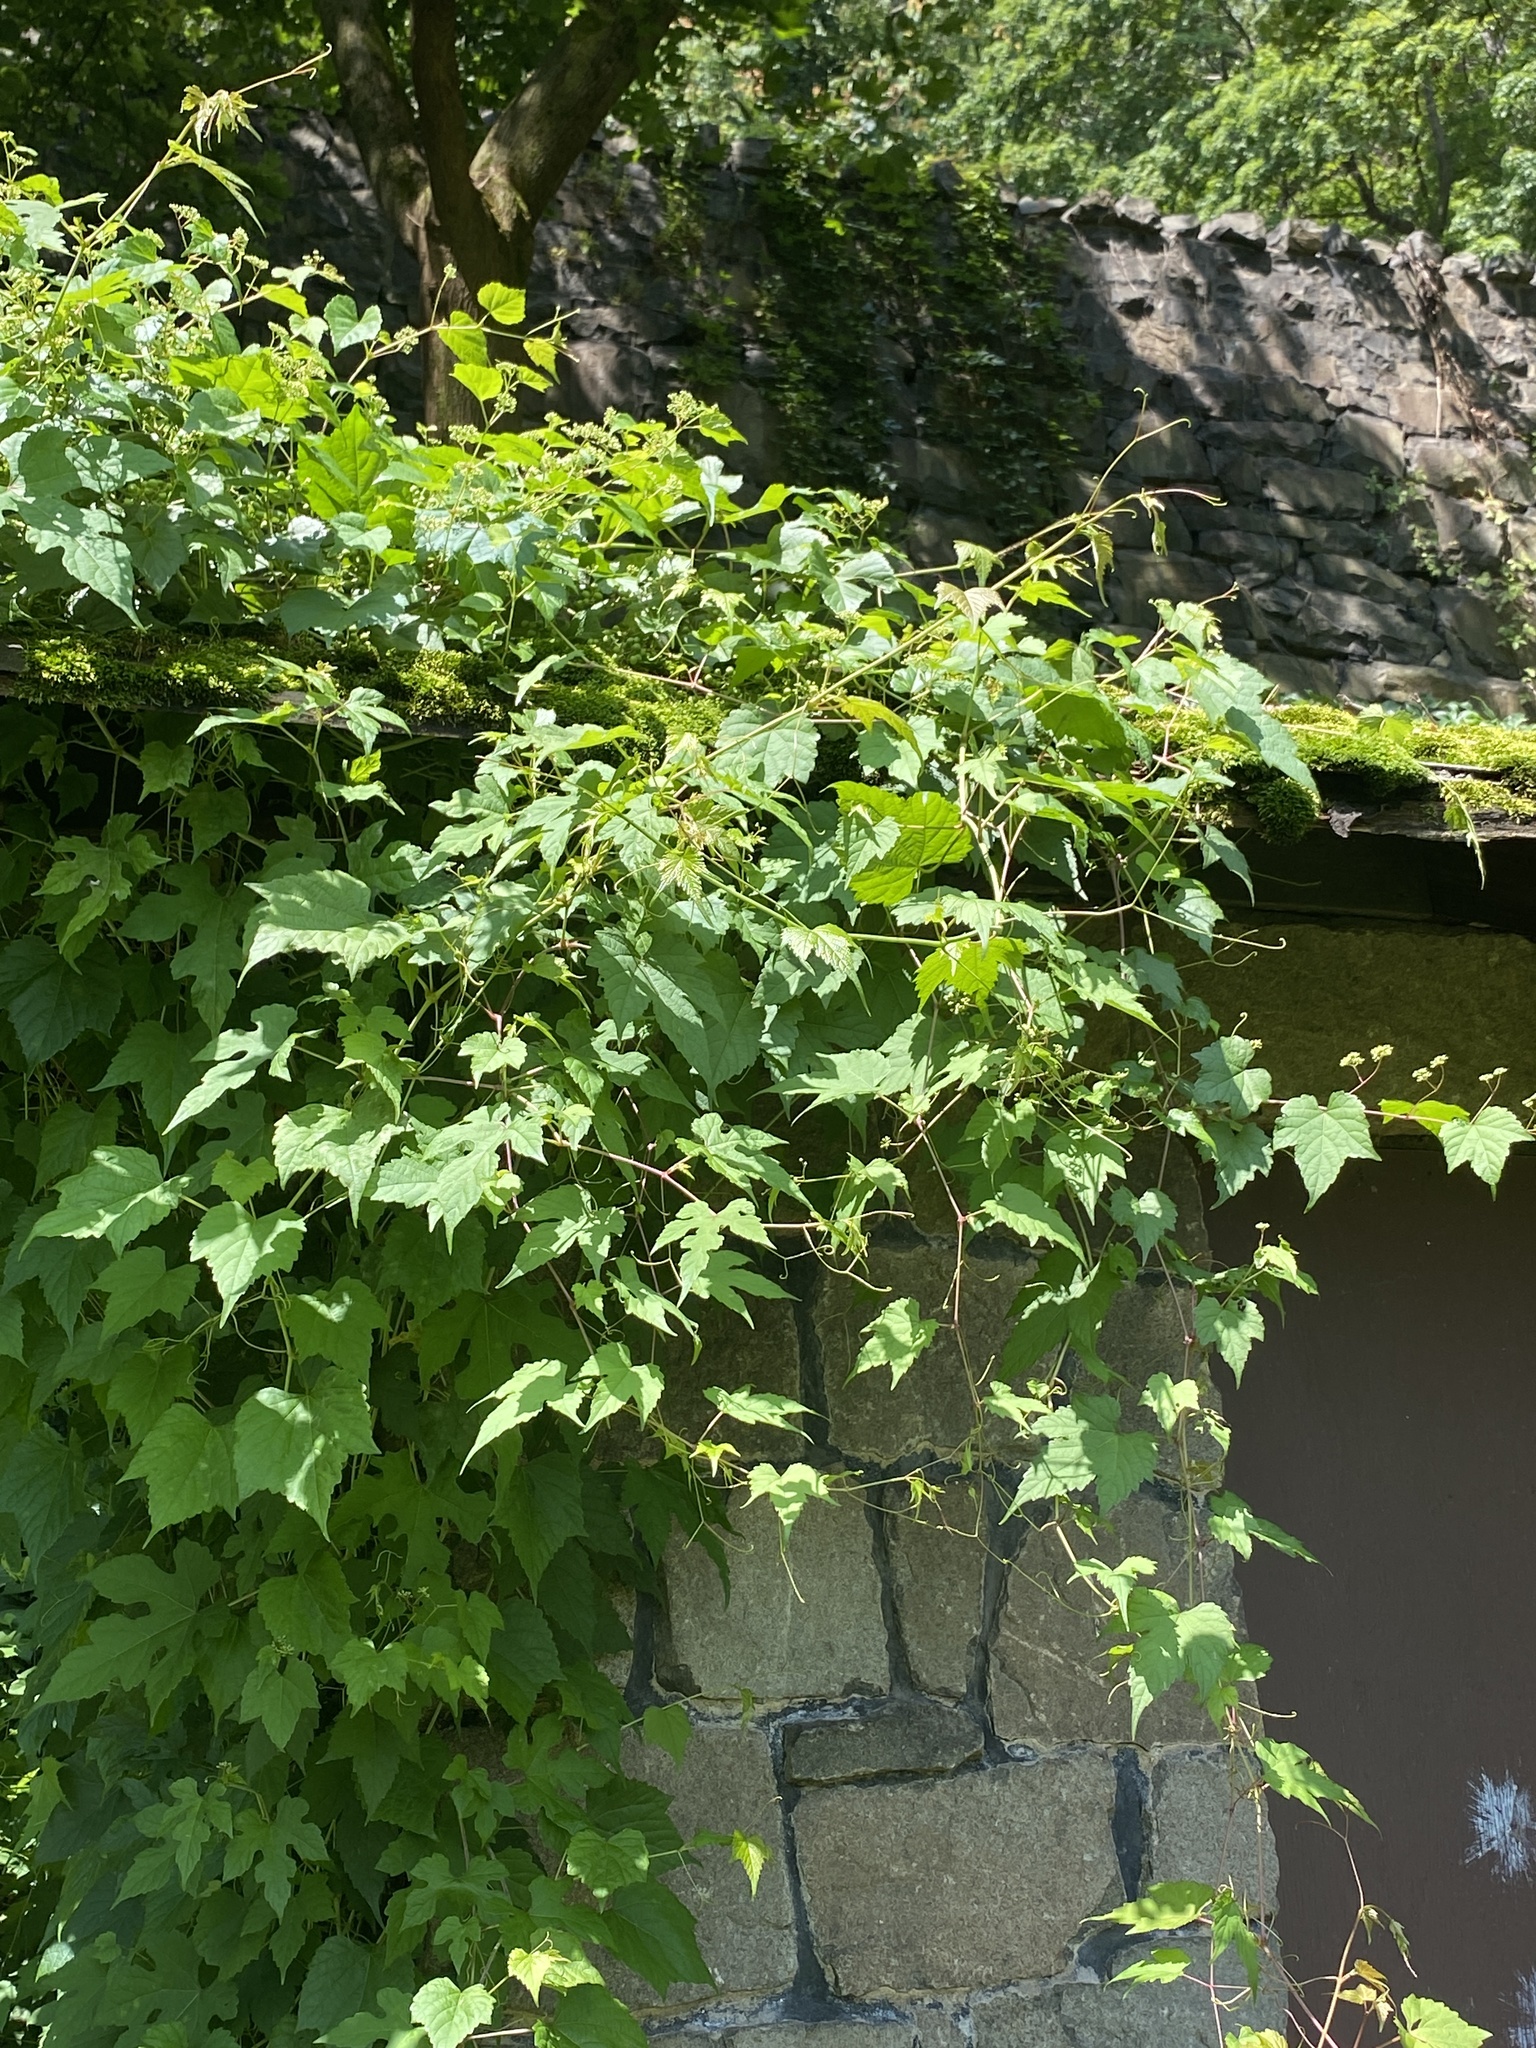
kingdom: Plantae
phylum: Tracheophyta
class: Magnoliopsida
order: Vitales
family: Vitaceae
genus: Ampelopsis
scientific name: Ampelopsis glandulosa
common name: Amur peppervine
